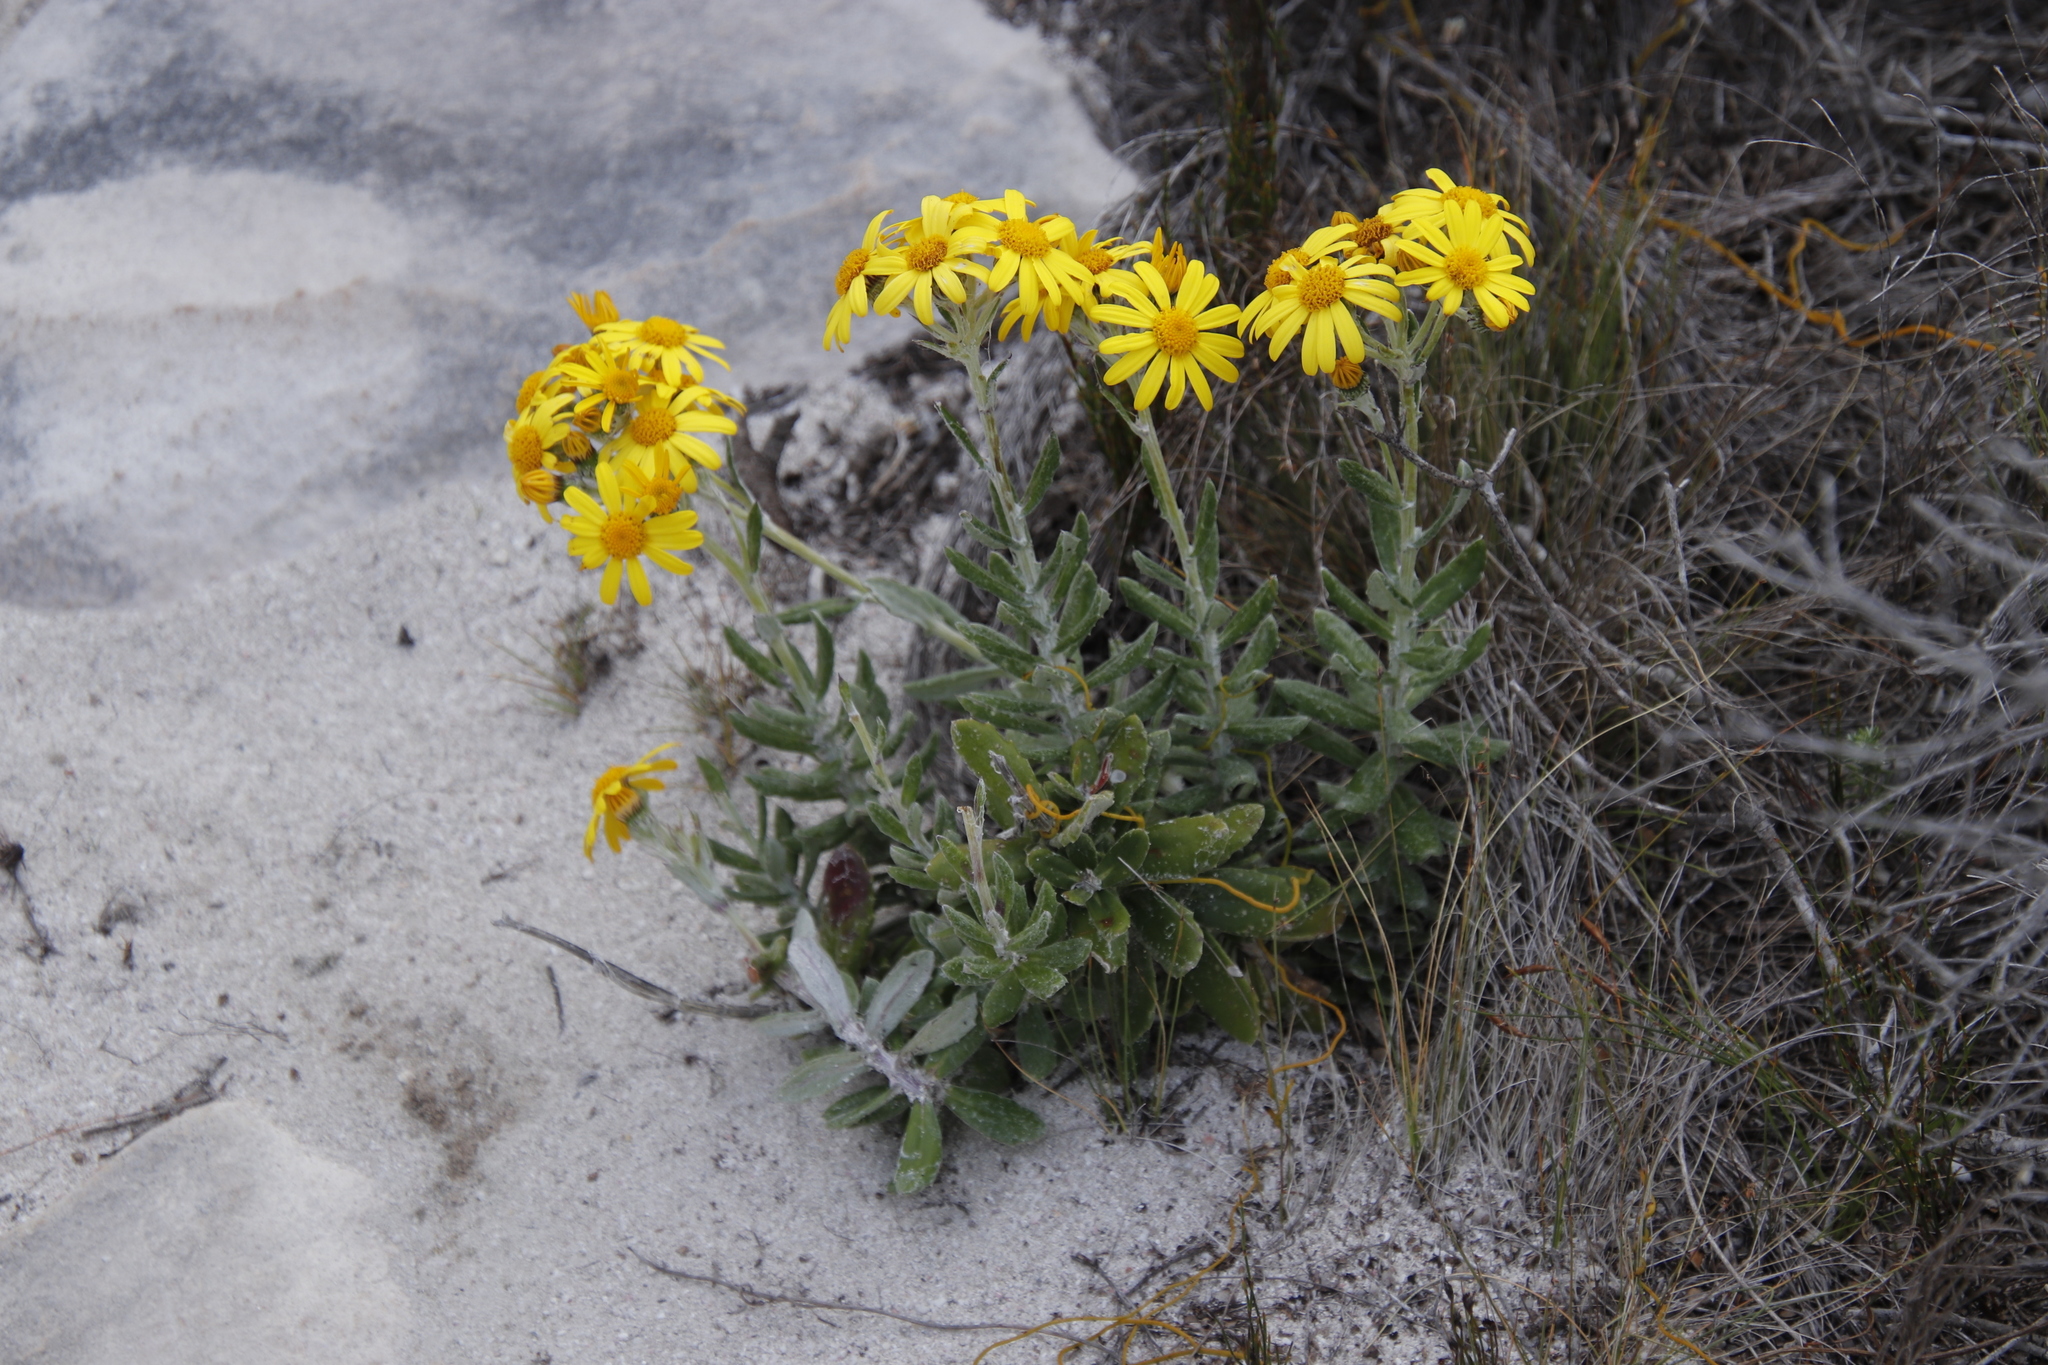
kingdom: Plantae
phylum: Tracheophyta
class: Magnoliopsida
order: Asterales
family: Asteraceae
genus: Senecio
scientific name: Senecio arniciflorus
